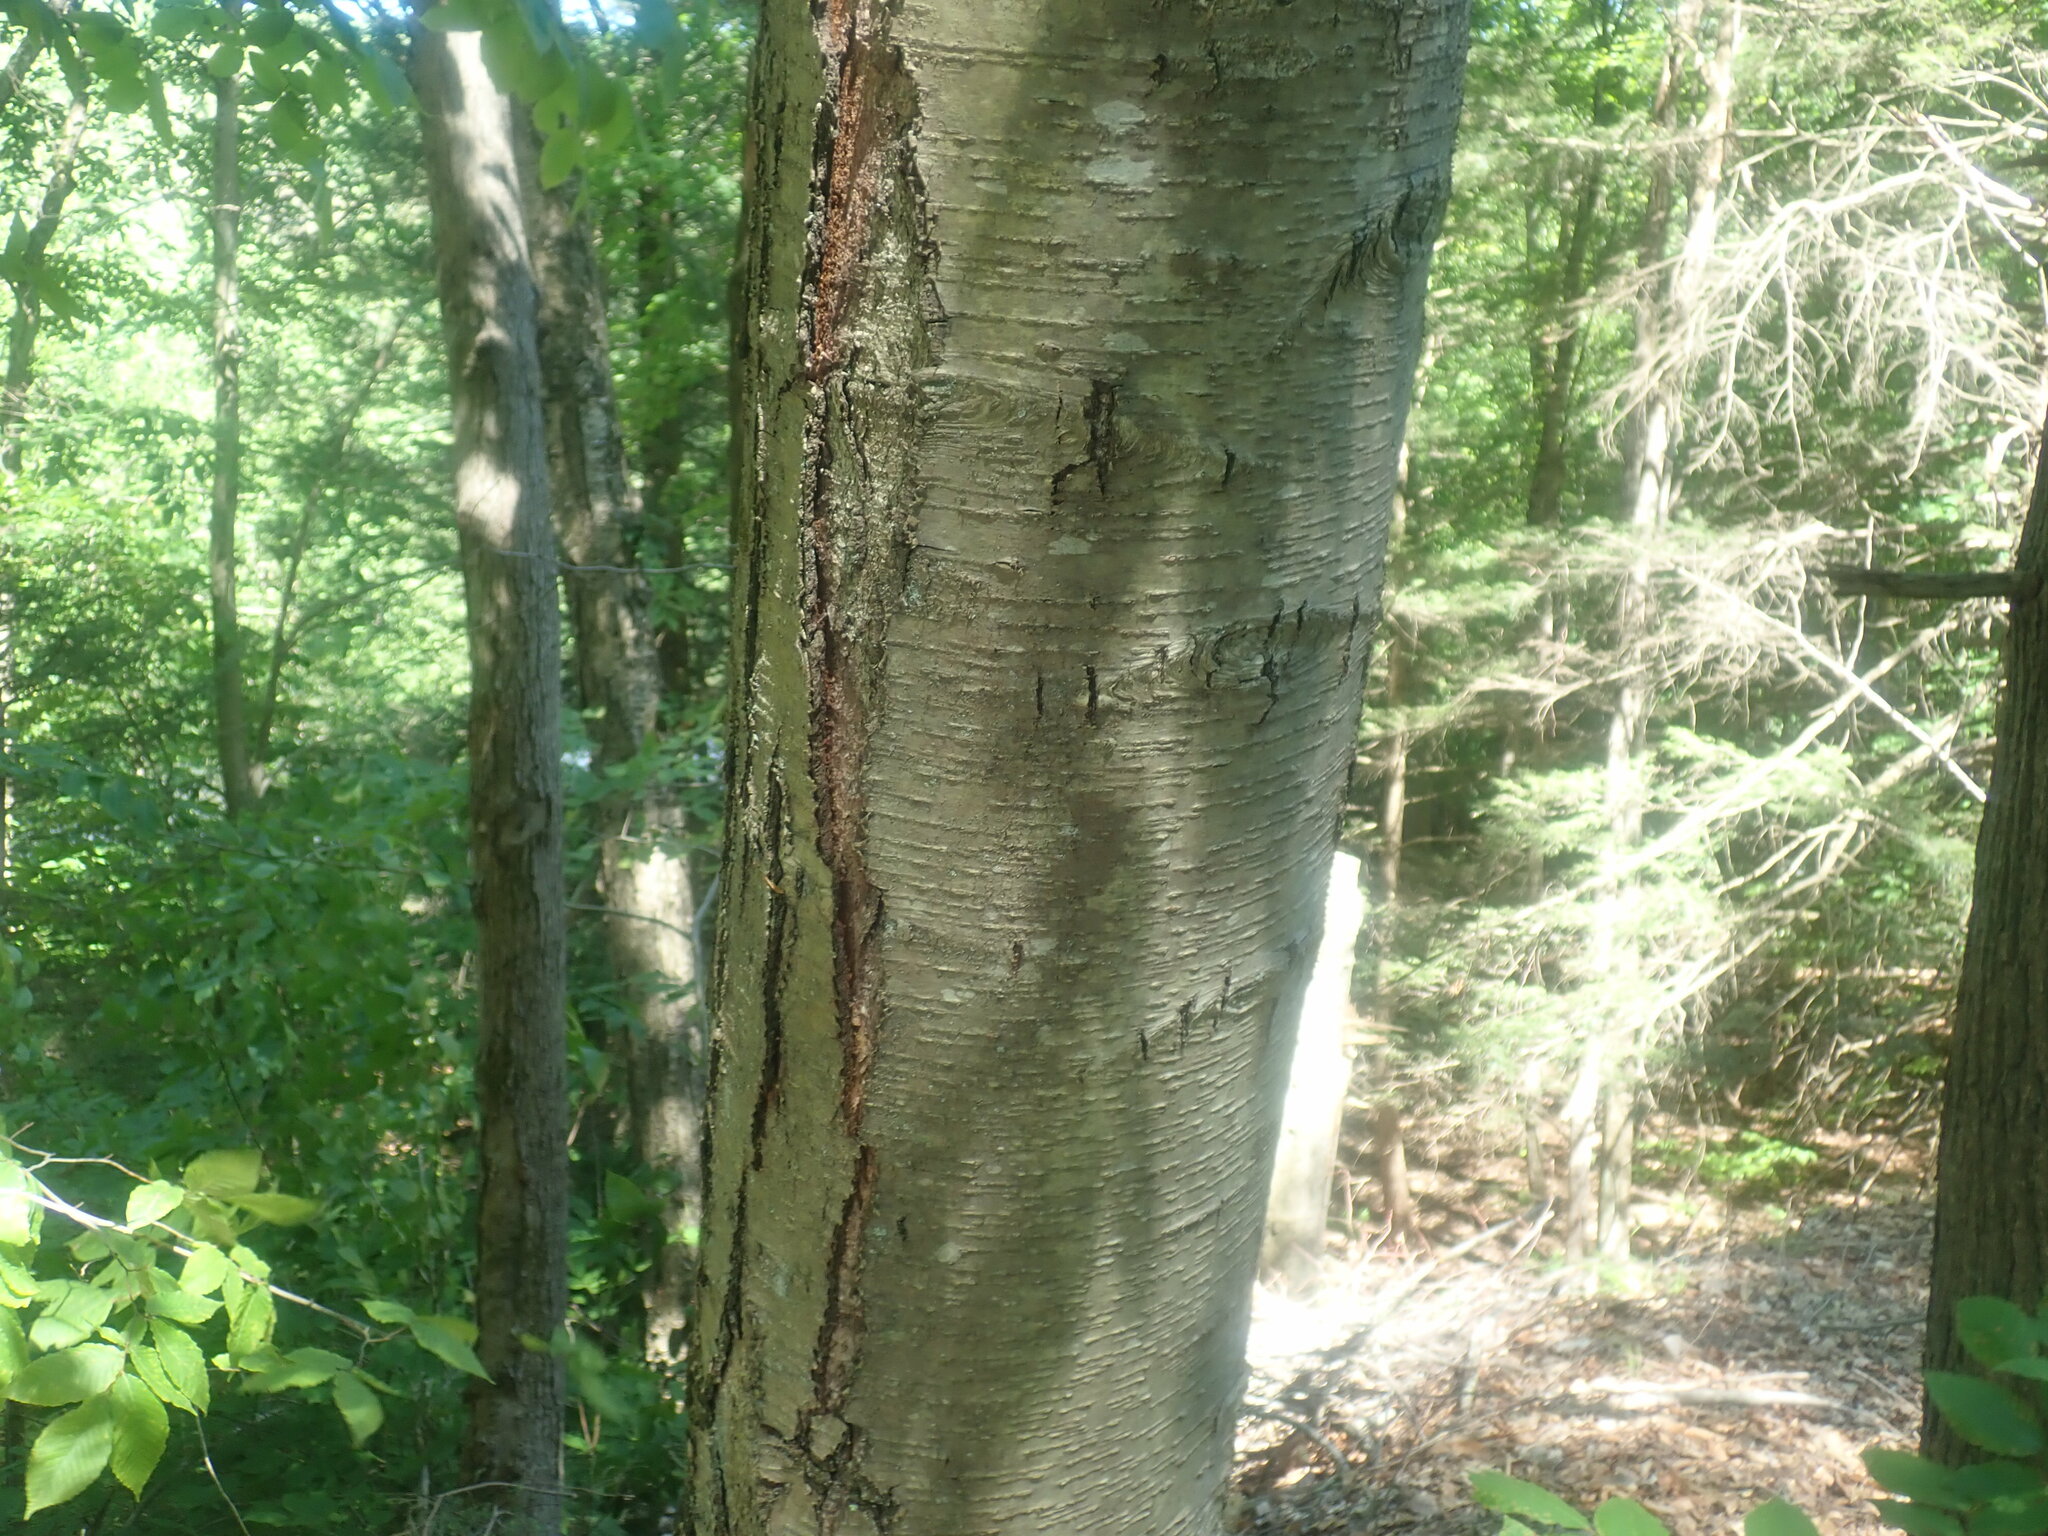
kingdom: Plantae
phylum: Tracheophyta
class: Magnoliopsida
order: Fagales
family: Betulaceae
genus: Betula
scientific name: Betula lenta
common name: Black birch
